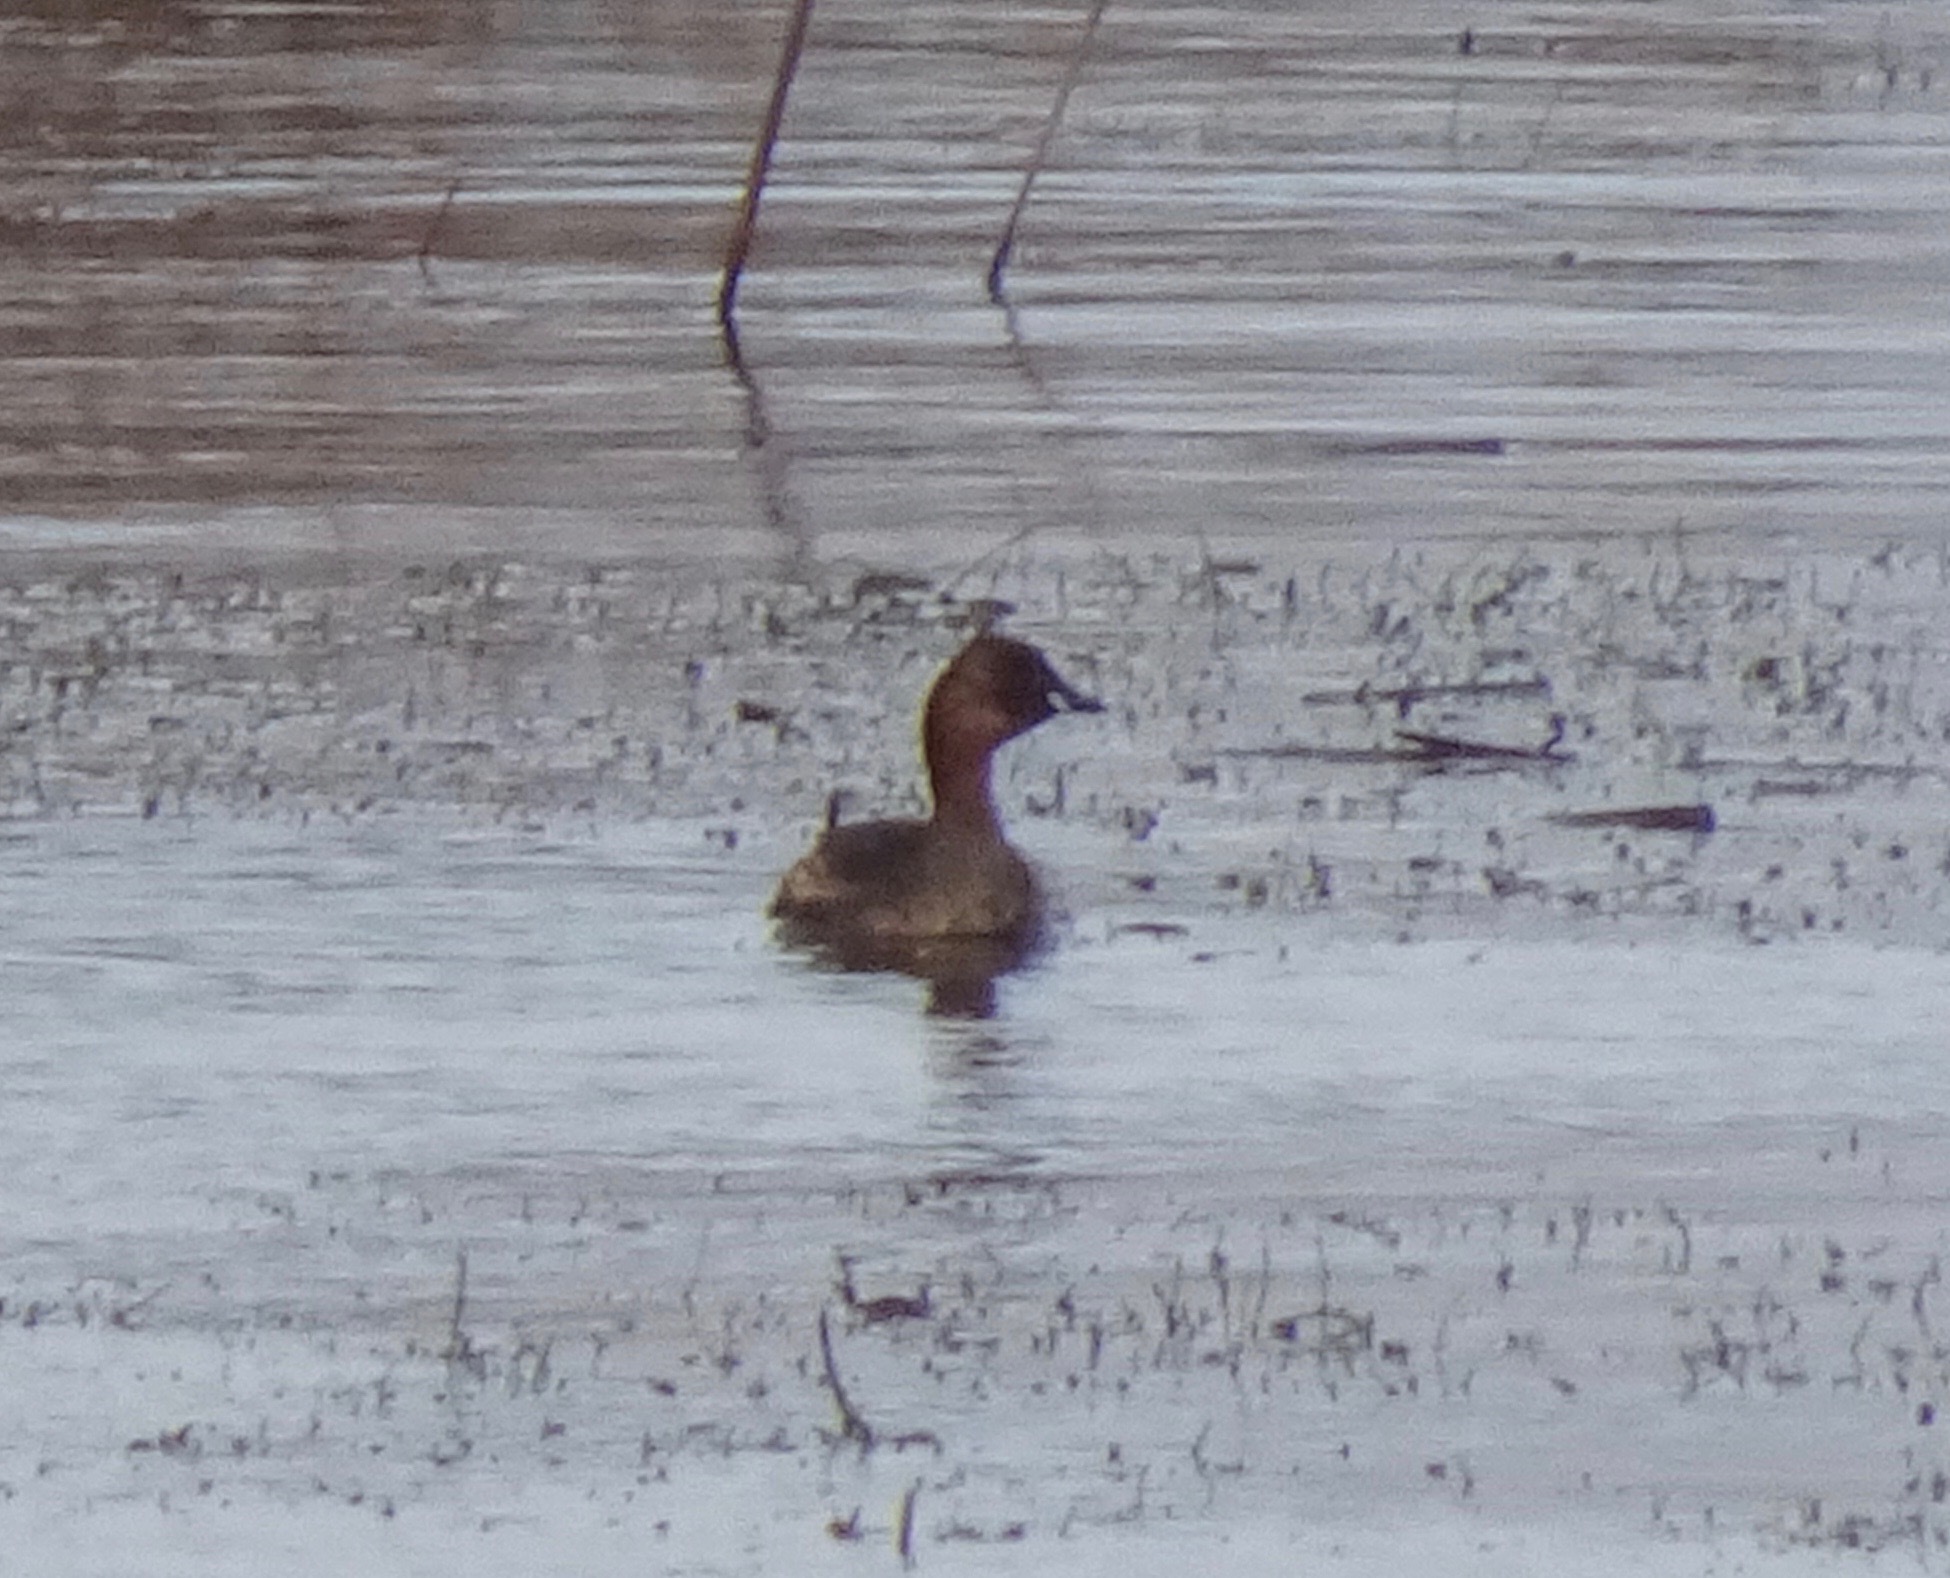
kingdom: Animalia
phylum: Chordata
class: Aves
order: Podicipediformes
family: Podicipedidae
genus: Tachybaptus
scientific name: Tachybaptus ruficollis
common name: Little grebe
